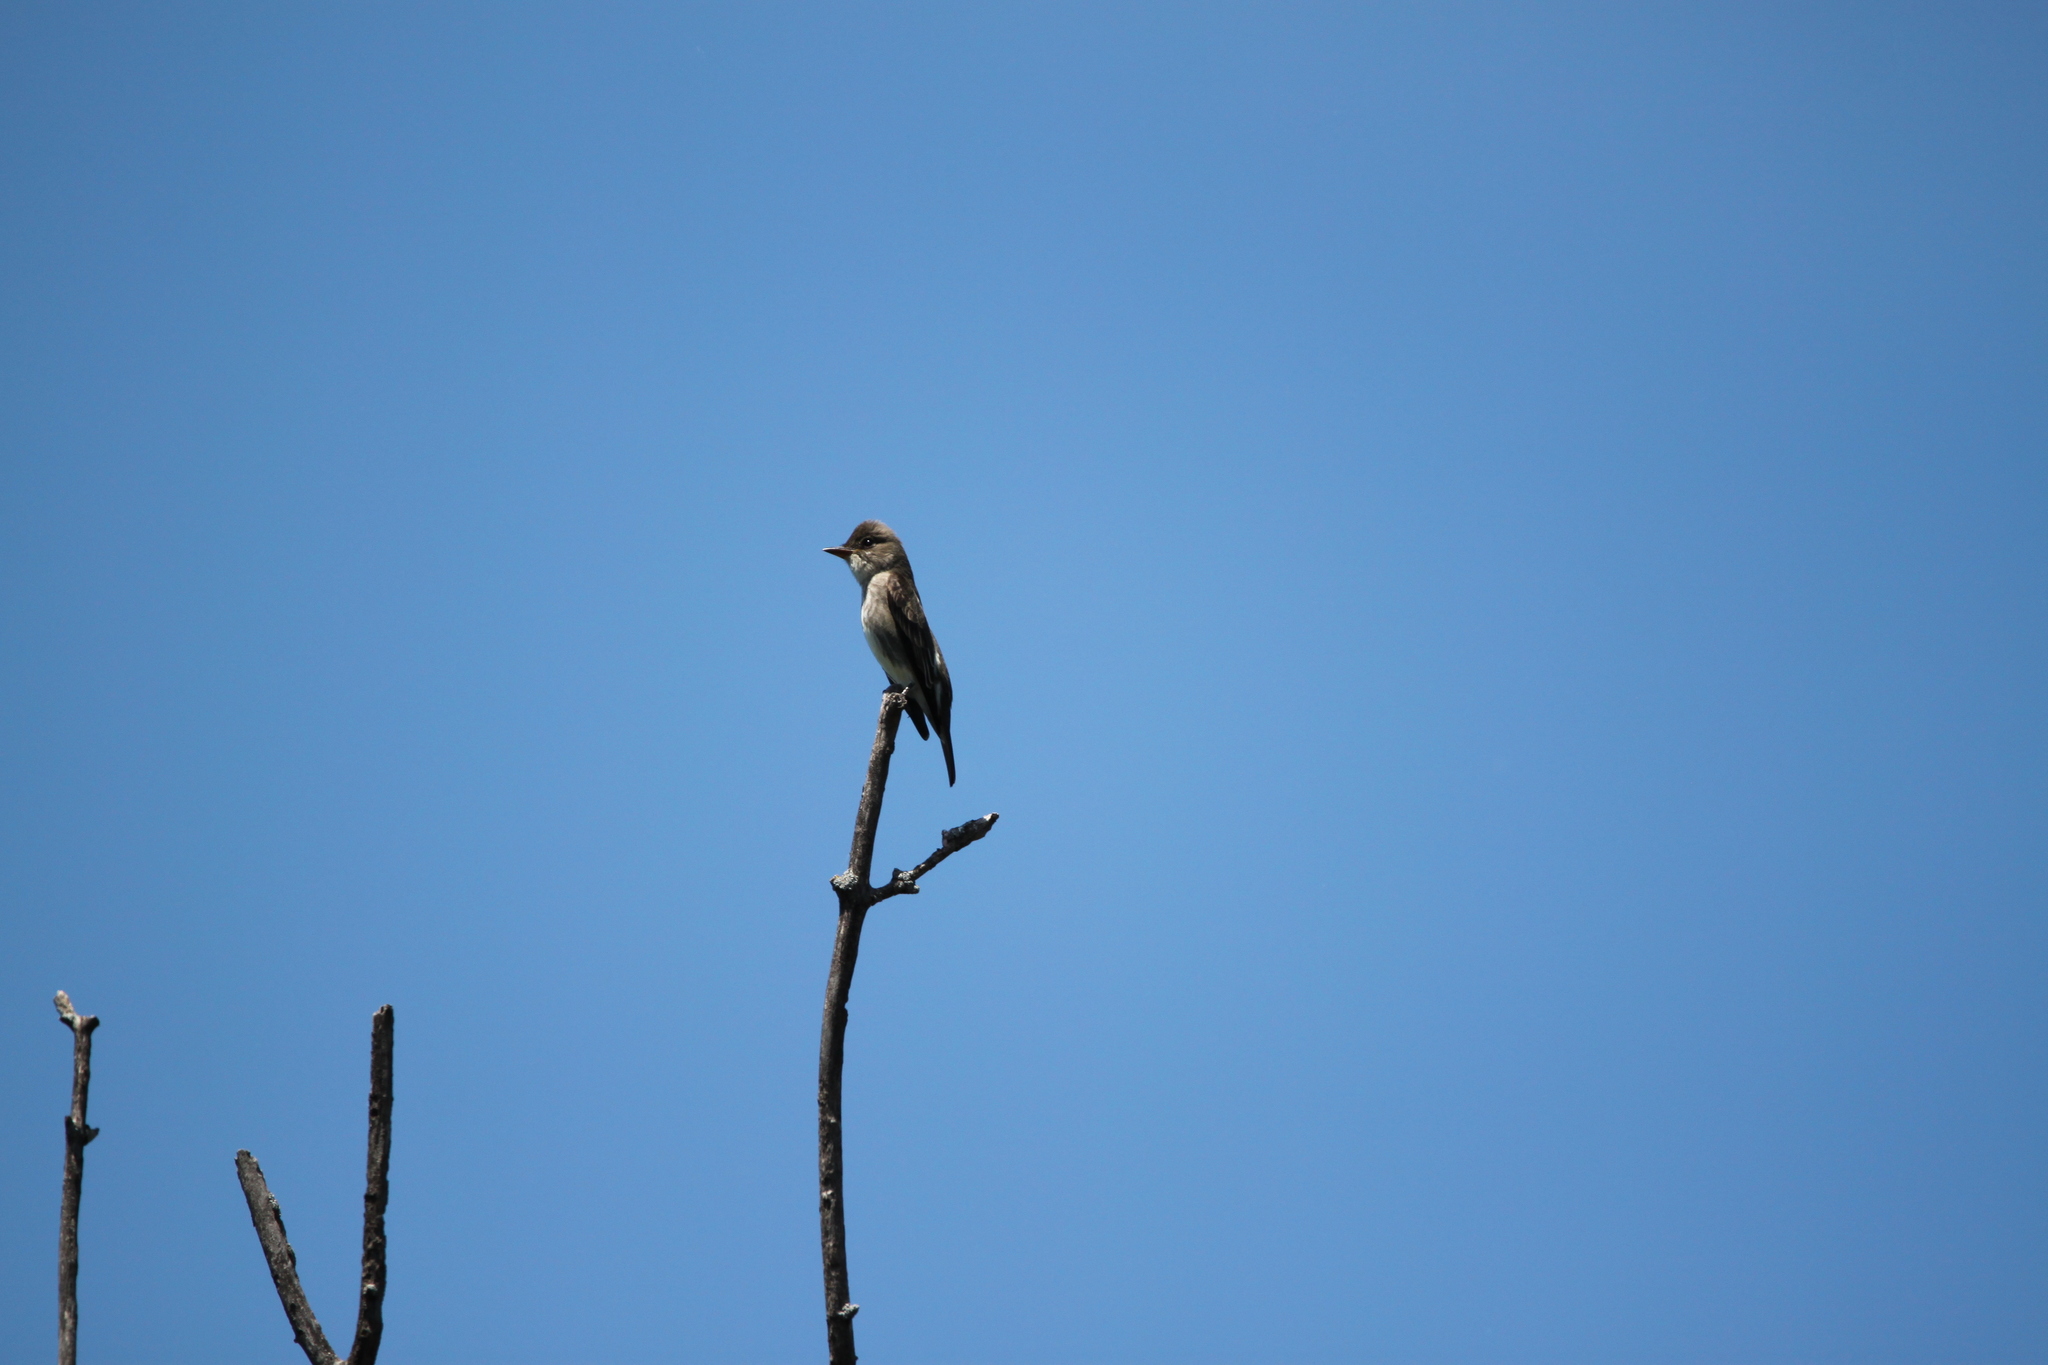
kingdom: Animalia
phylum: Chordata
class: Aves
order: Passeriformes
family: Tyrannidae
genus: Contopus
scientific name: Contopus cooperi
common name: Olive-sided flycatcher
